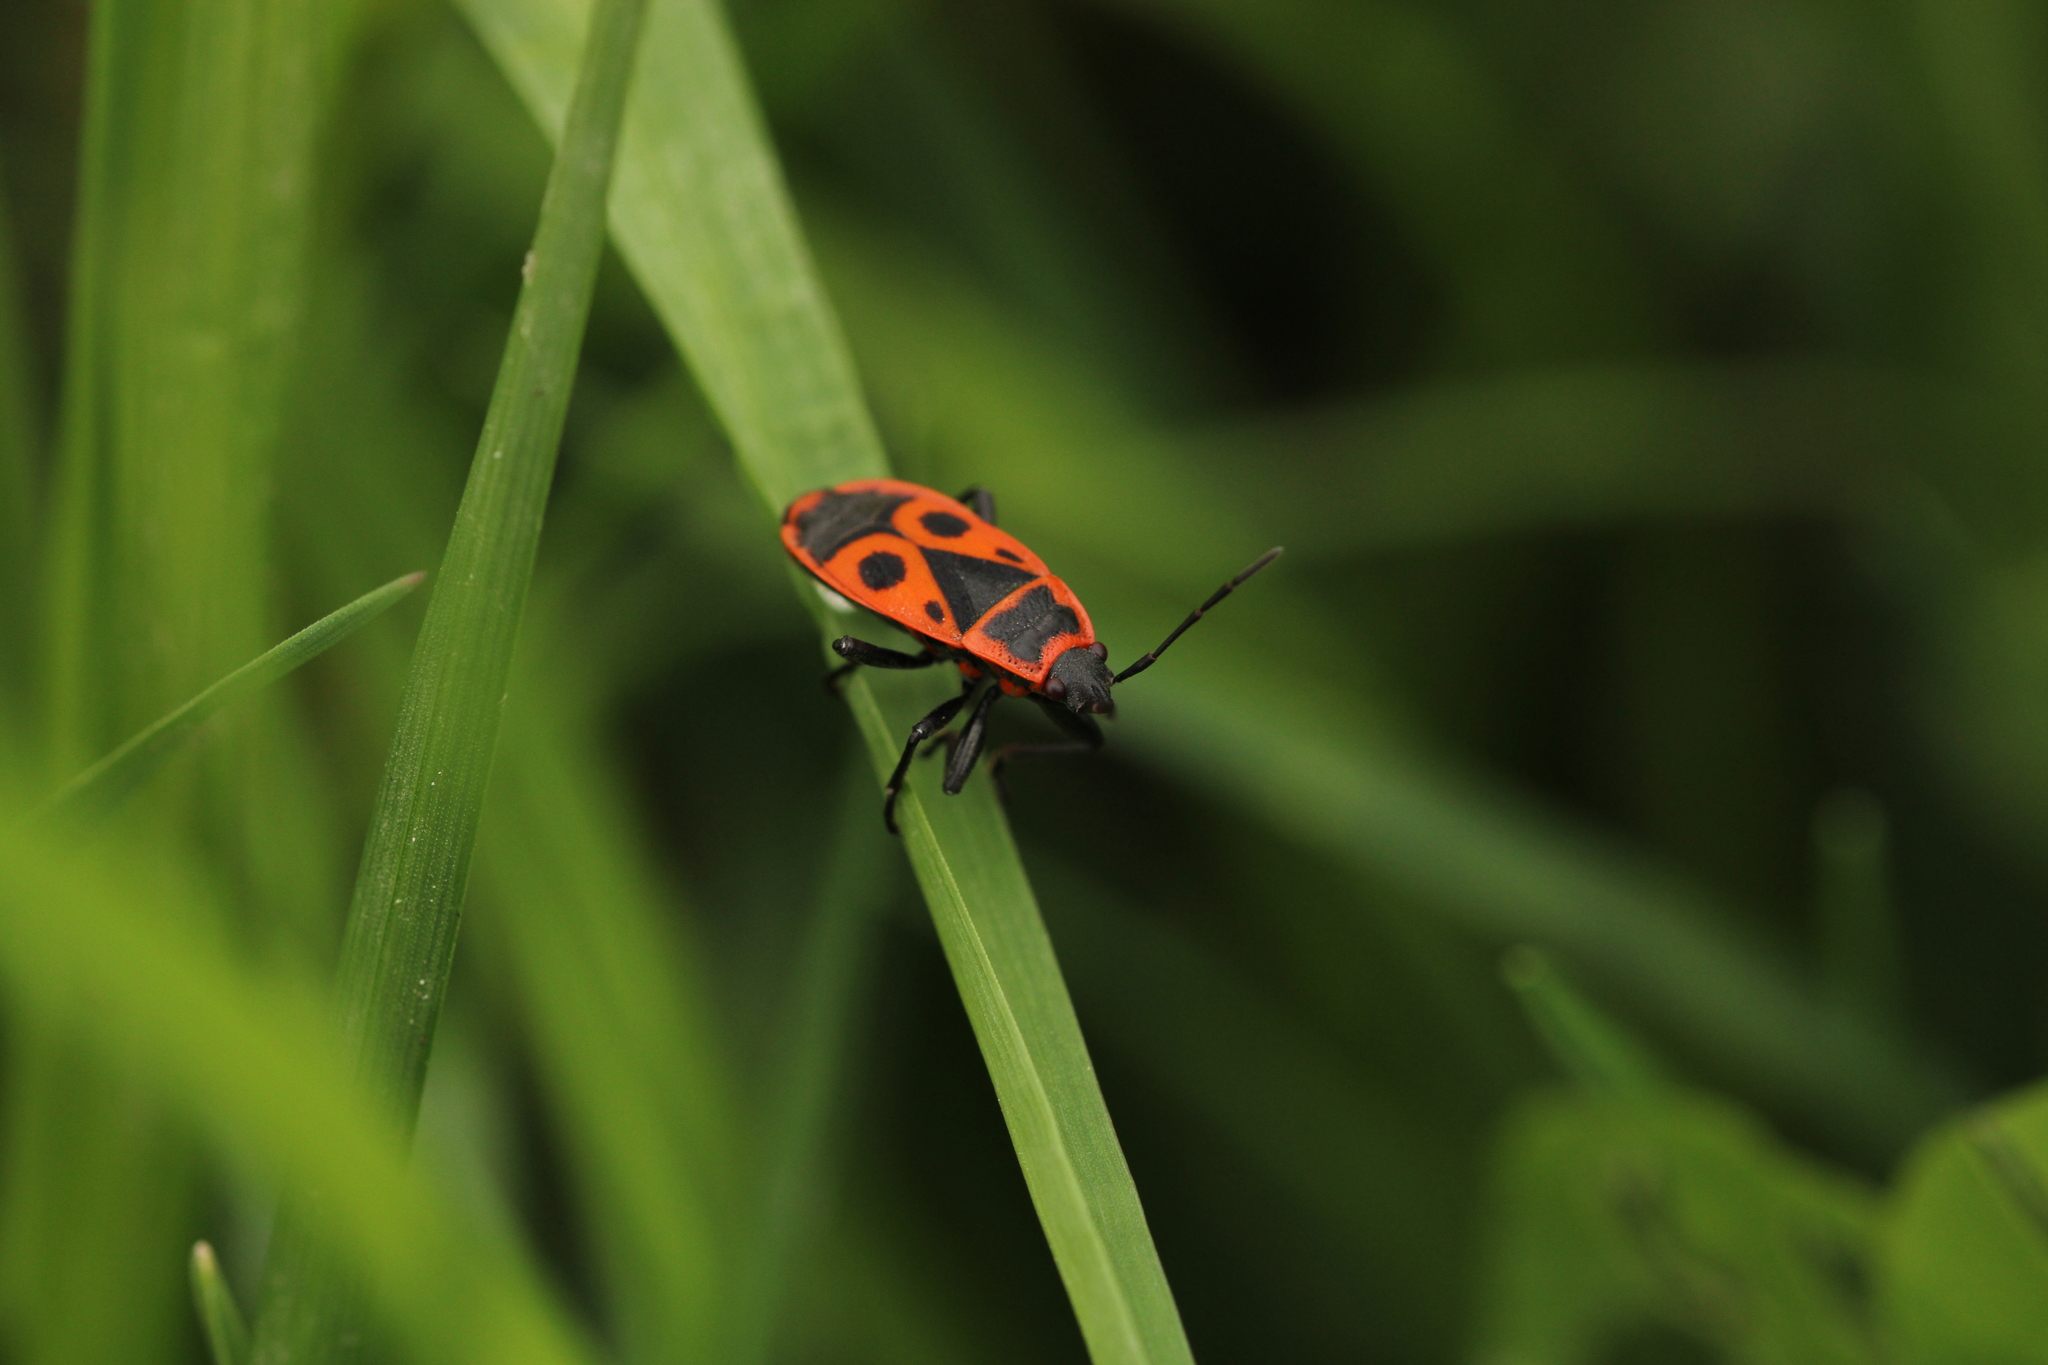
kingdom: Animalia
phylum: Arthropoda
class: Insecta
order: Hemiptera
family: Pyrrhocoridae
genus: Pyrrhocoris
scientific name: Pyrrhocoris apterus
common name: Firebug
